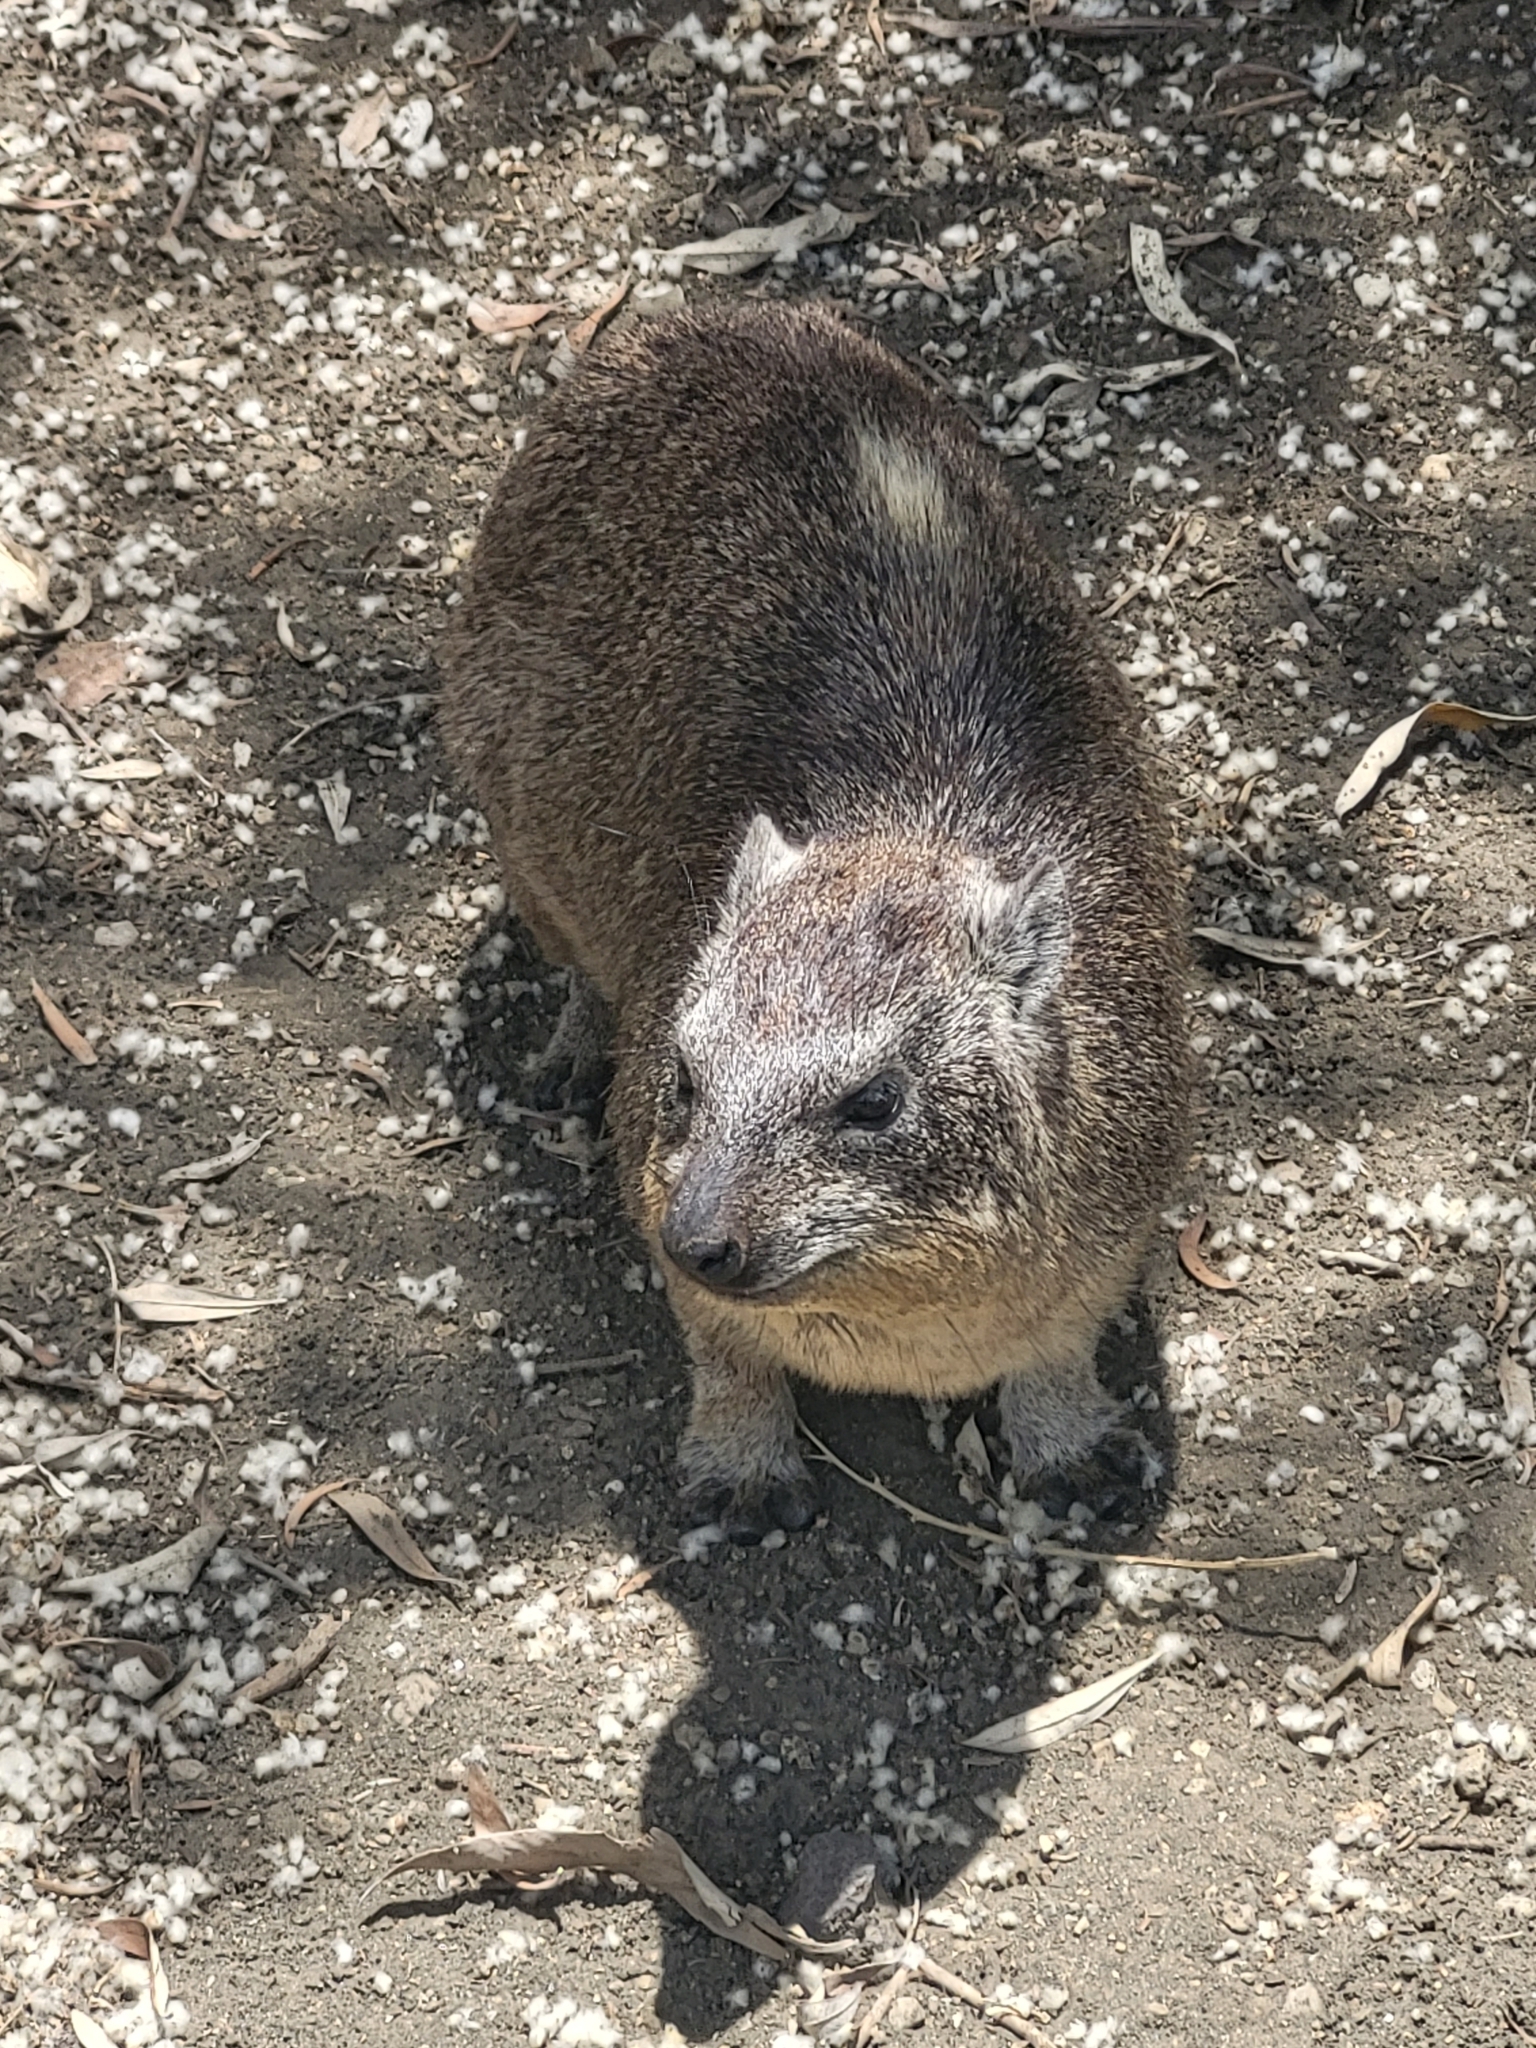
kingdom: Animalia
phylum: Chordata
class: Mammalia
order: Hyracoidea
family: Procaviidae
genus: Procavia
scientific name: Procavia capensis
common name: Rock hyrax
